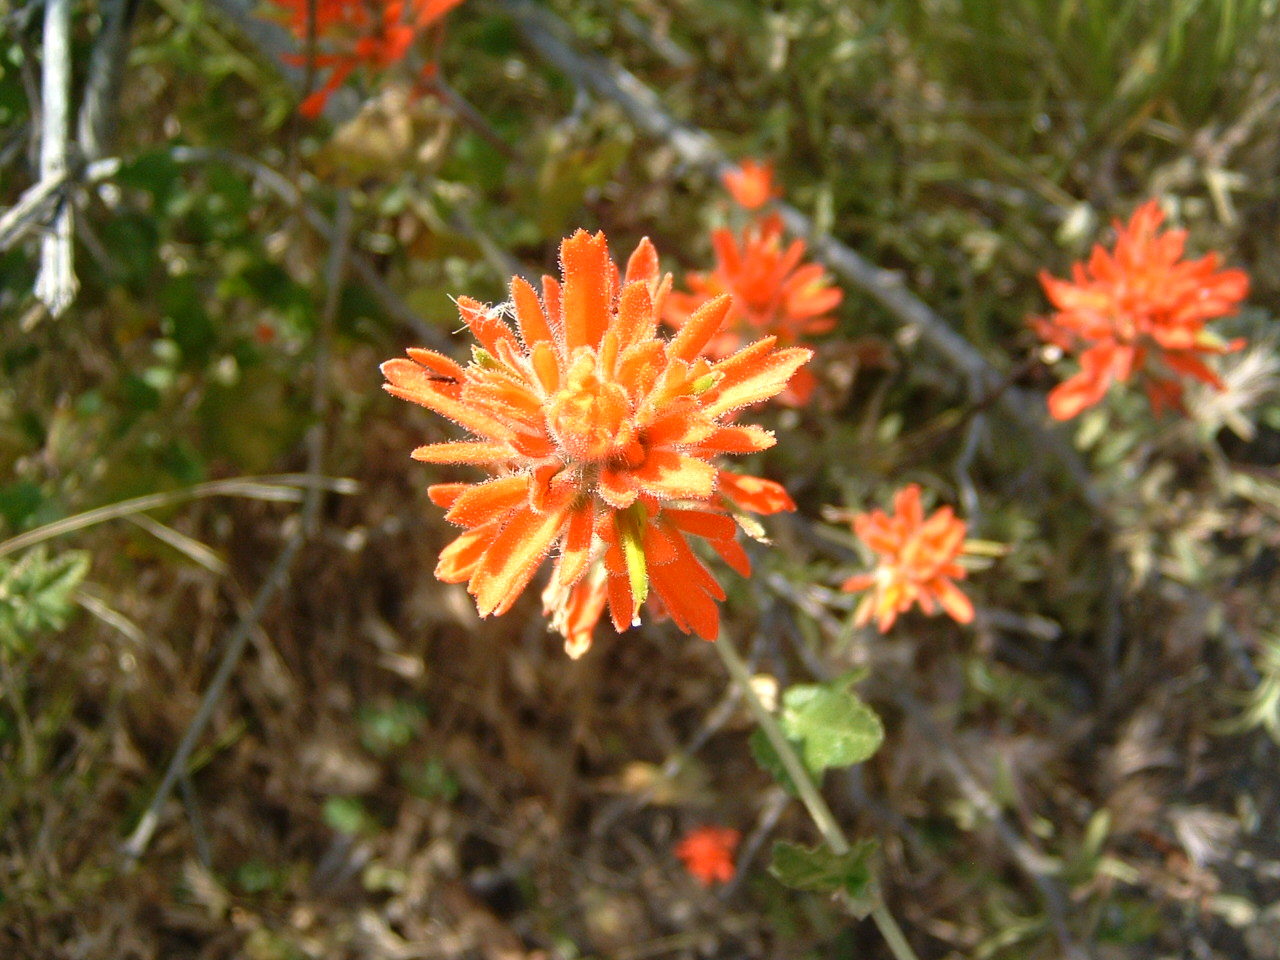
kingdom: Plantae
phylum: Tracheophyta
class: Magnoliopsida
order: Lamiales
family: Orobanchaceae
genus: Castilleja
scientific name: Castilleja affinis
